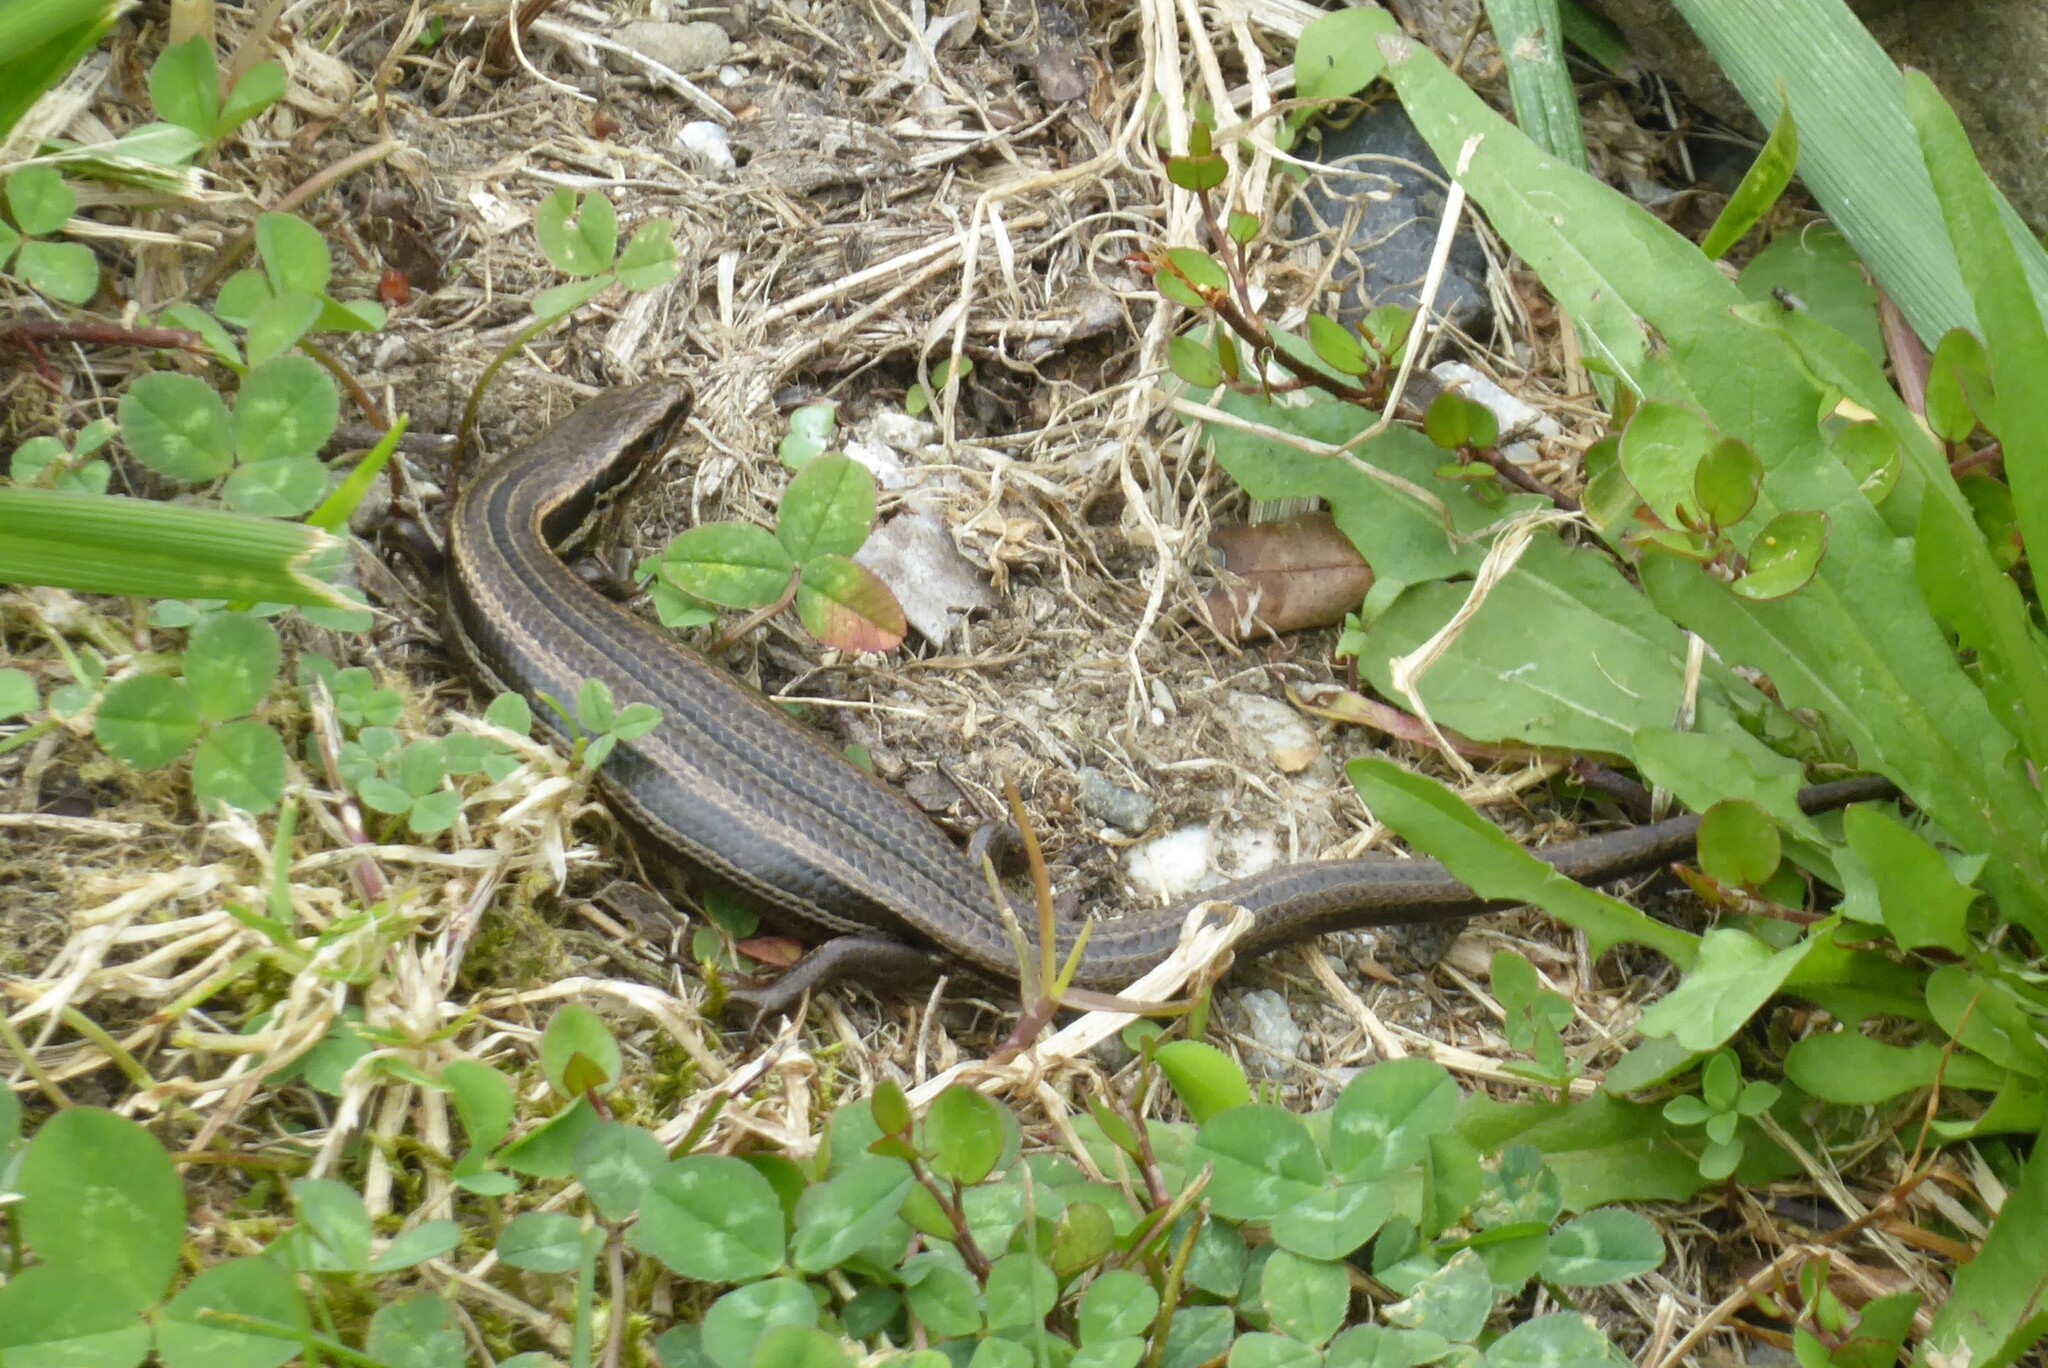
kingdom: Animalia
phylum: Chordata
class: Squamata
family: Scincidae
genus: Oligosoma
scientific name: Oligosoma polychroma
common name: Common new zealand skink
